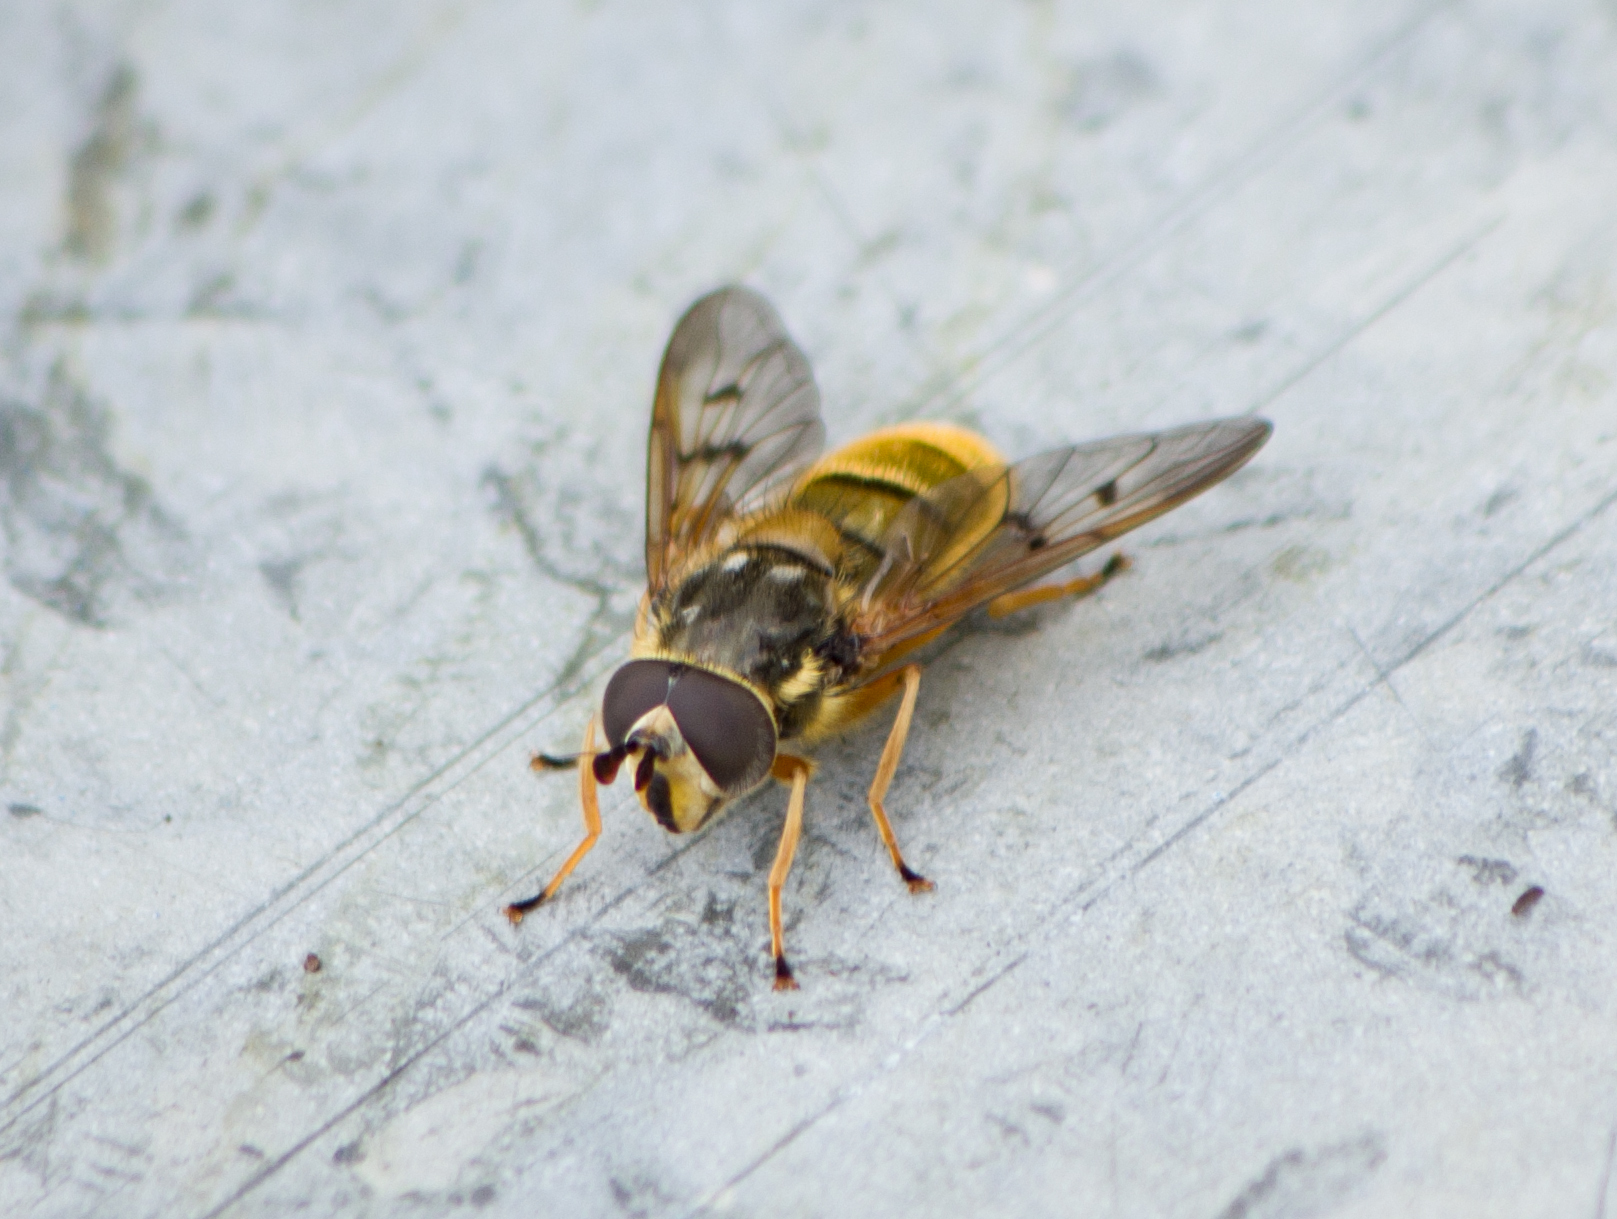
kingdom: Animalia
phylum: Arthropoda
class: Insecta
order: Diptera
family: Syrphidae
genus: Ferdinandea
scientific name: Ferdinandea aurea
